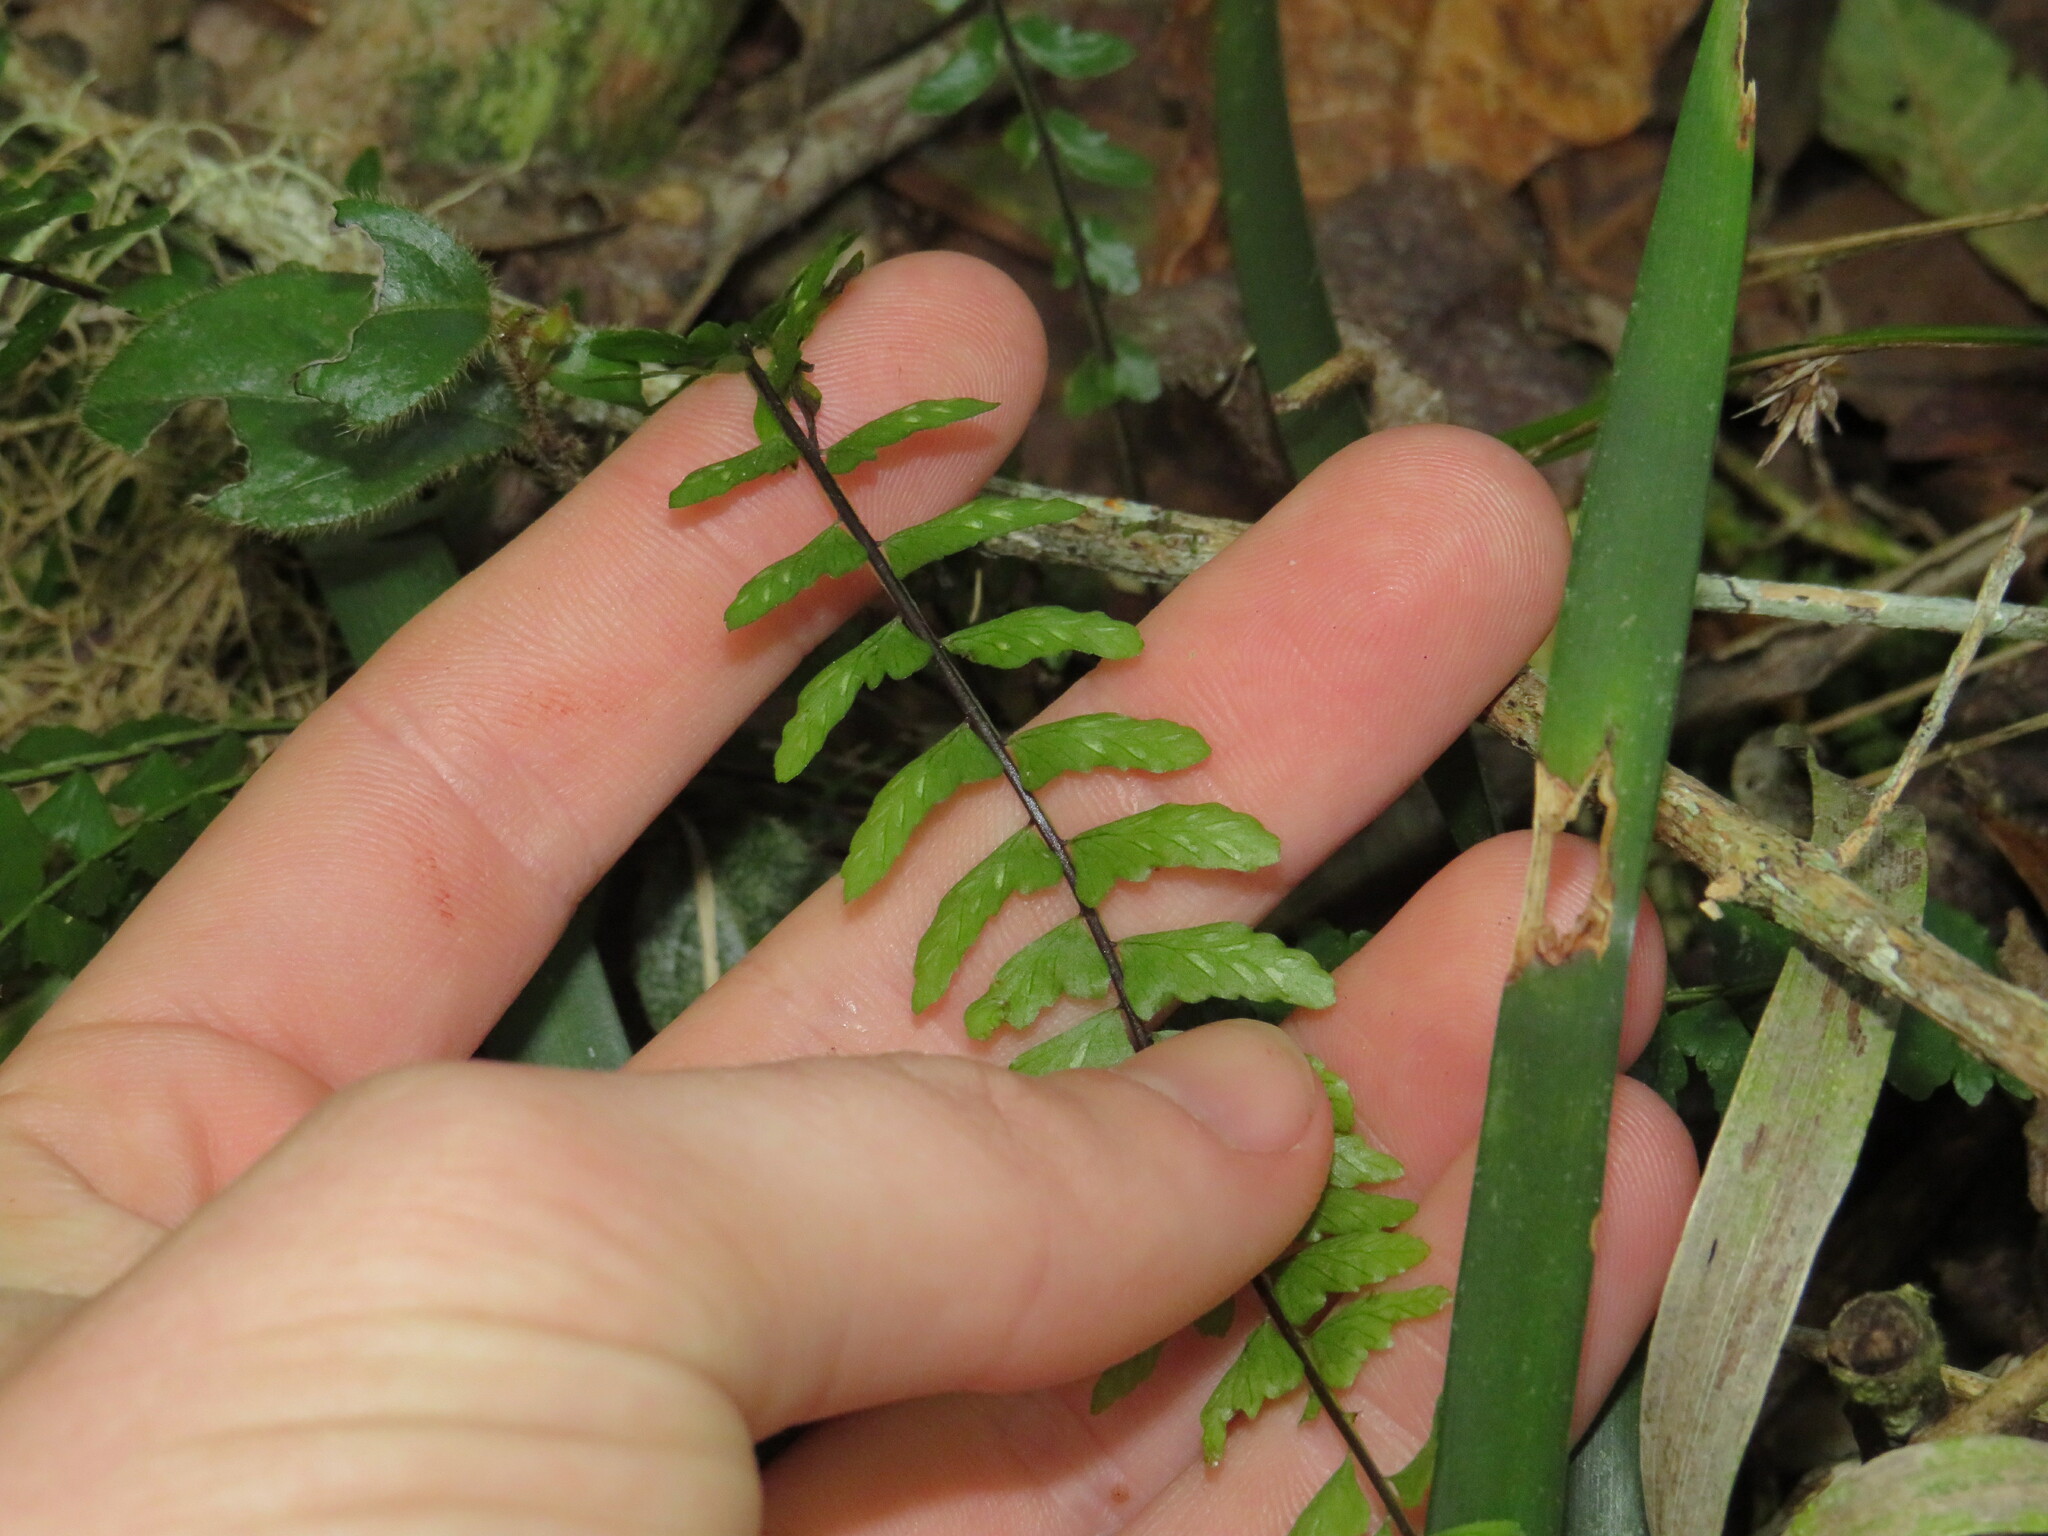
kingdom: Plantae
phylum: Tracheophyta
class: Polypodiopsida
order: Polypodiales
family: Aspleniaceae
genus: Asplenium
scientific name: Asplenium lunulatum
